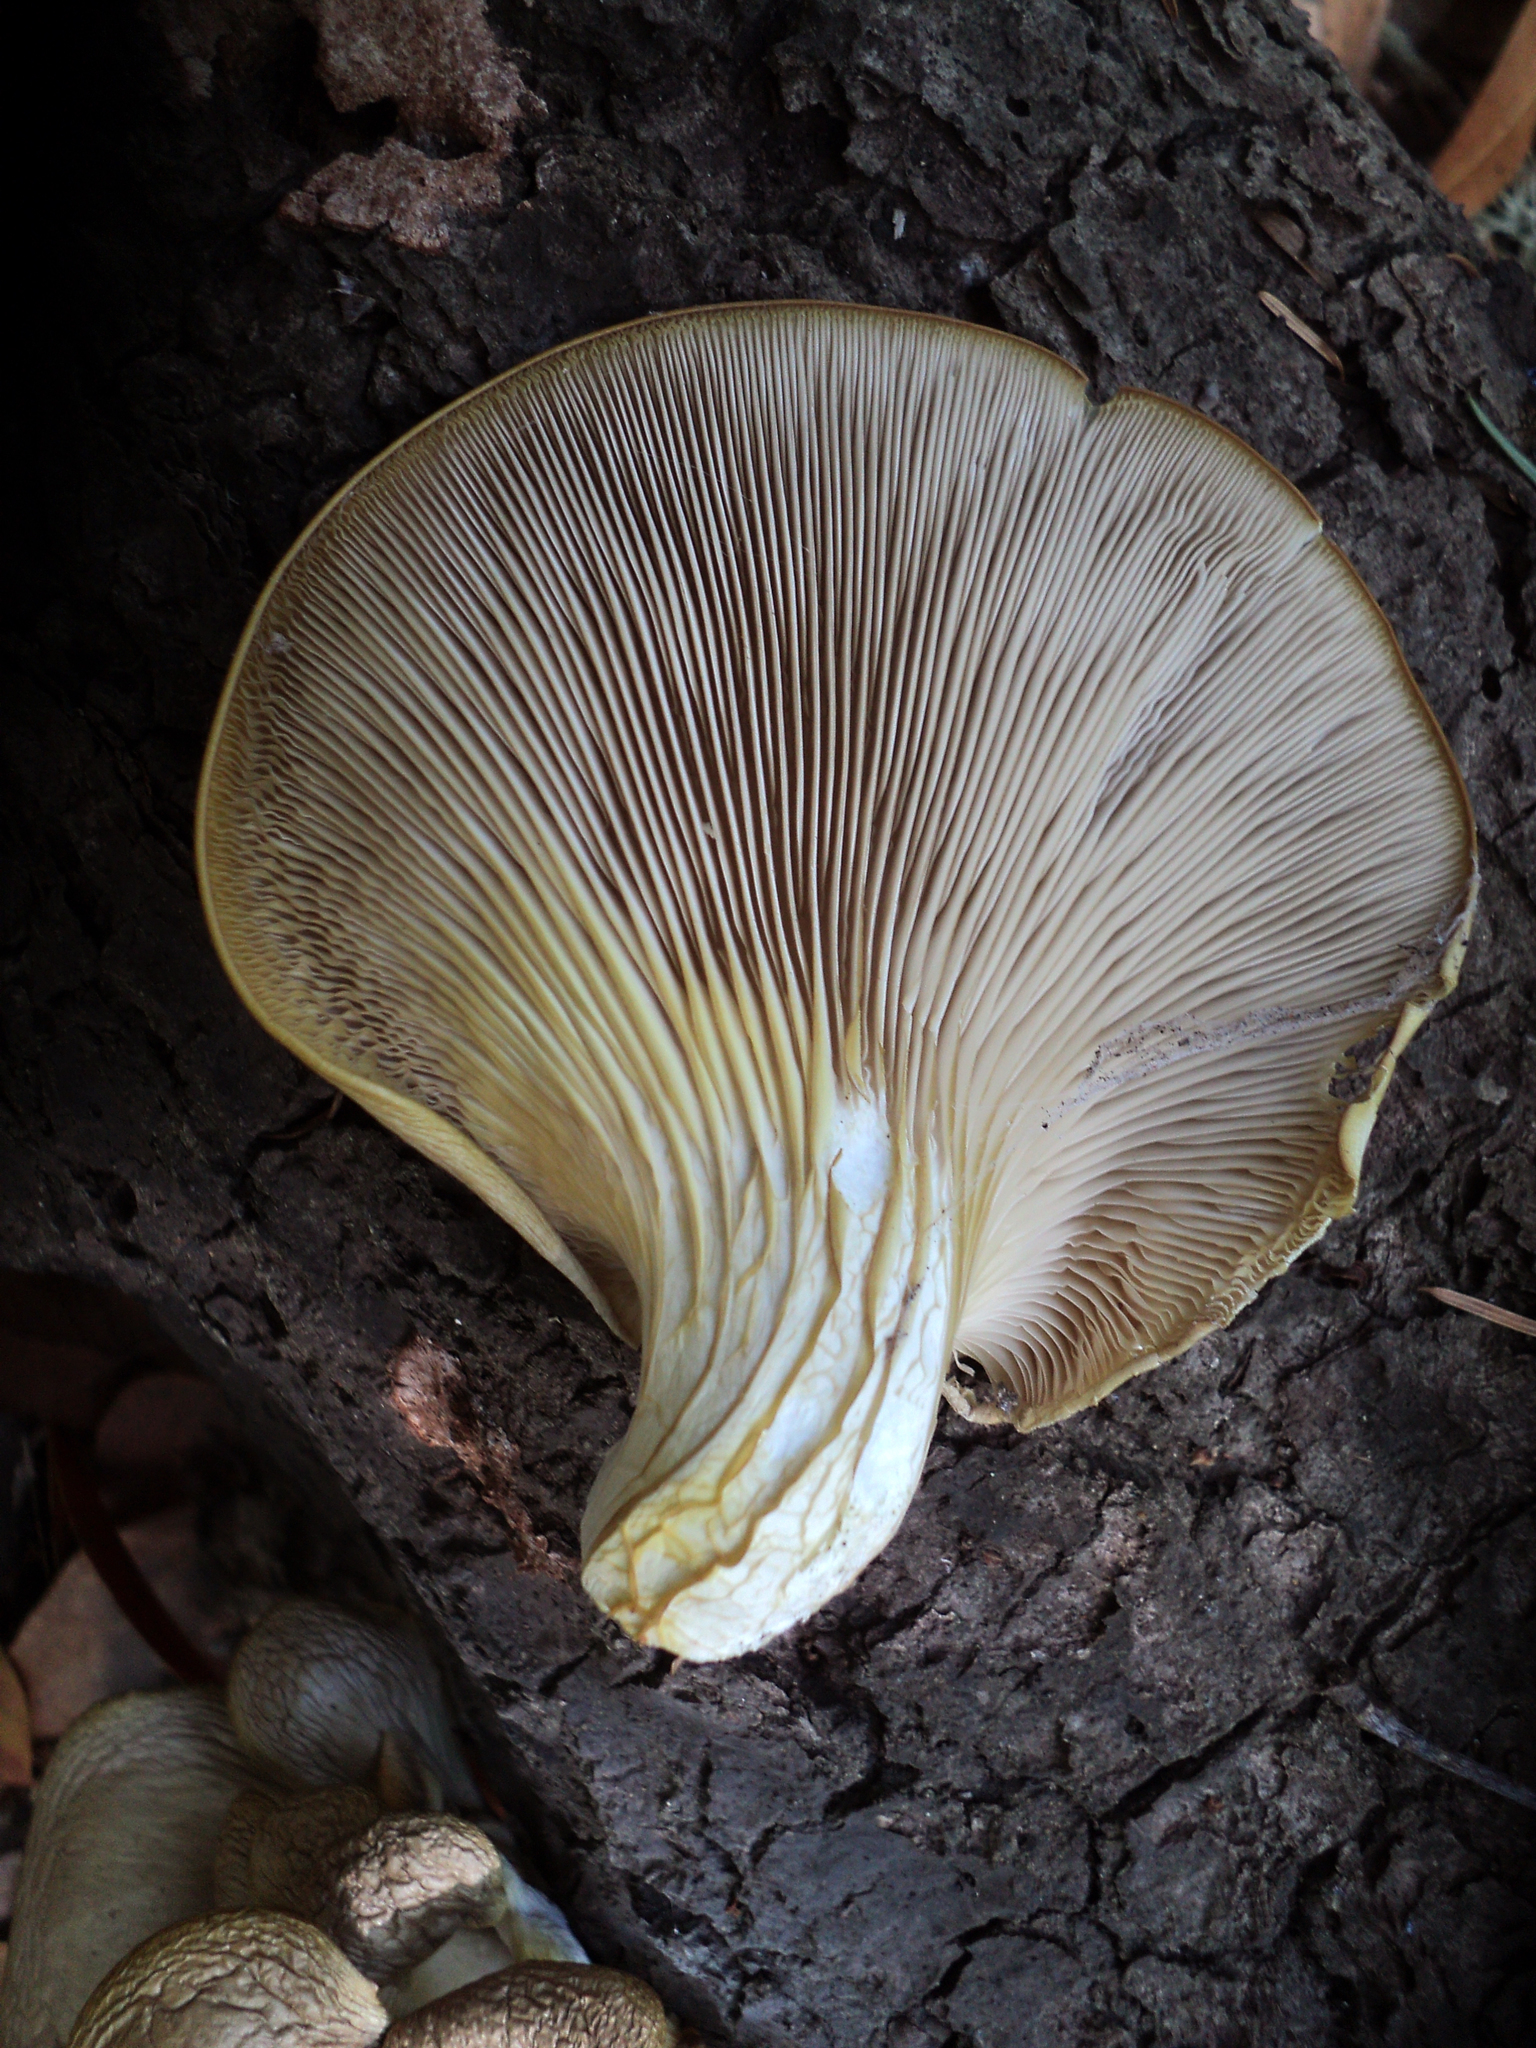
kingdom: Fungi
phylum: Basidiomycota
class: Agaricomycetes
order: Agaricales
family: Pleurotaceae
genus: Pleurotus
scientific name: Pleurotus ostreatus
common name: Oyster mushroom
